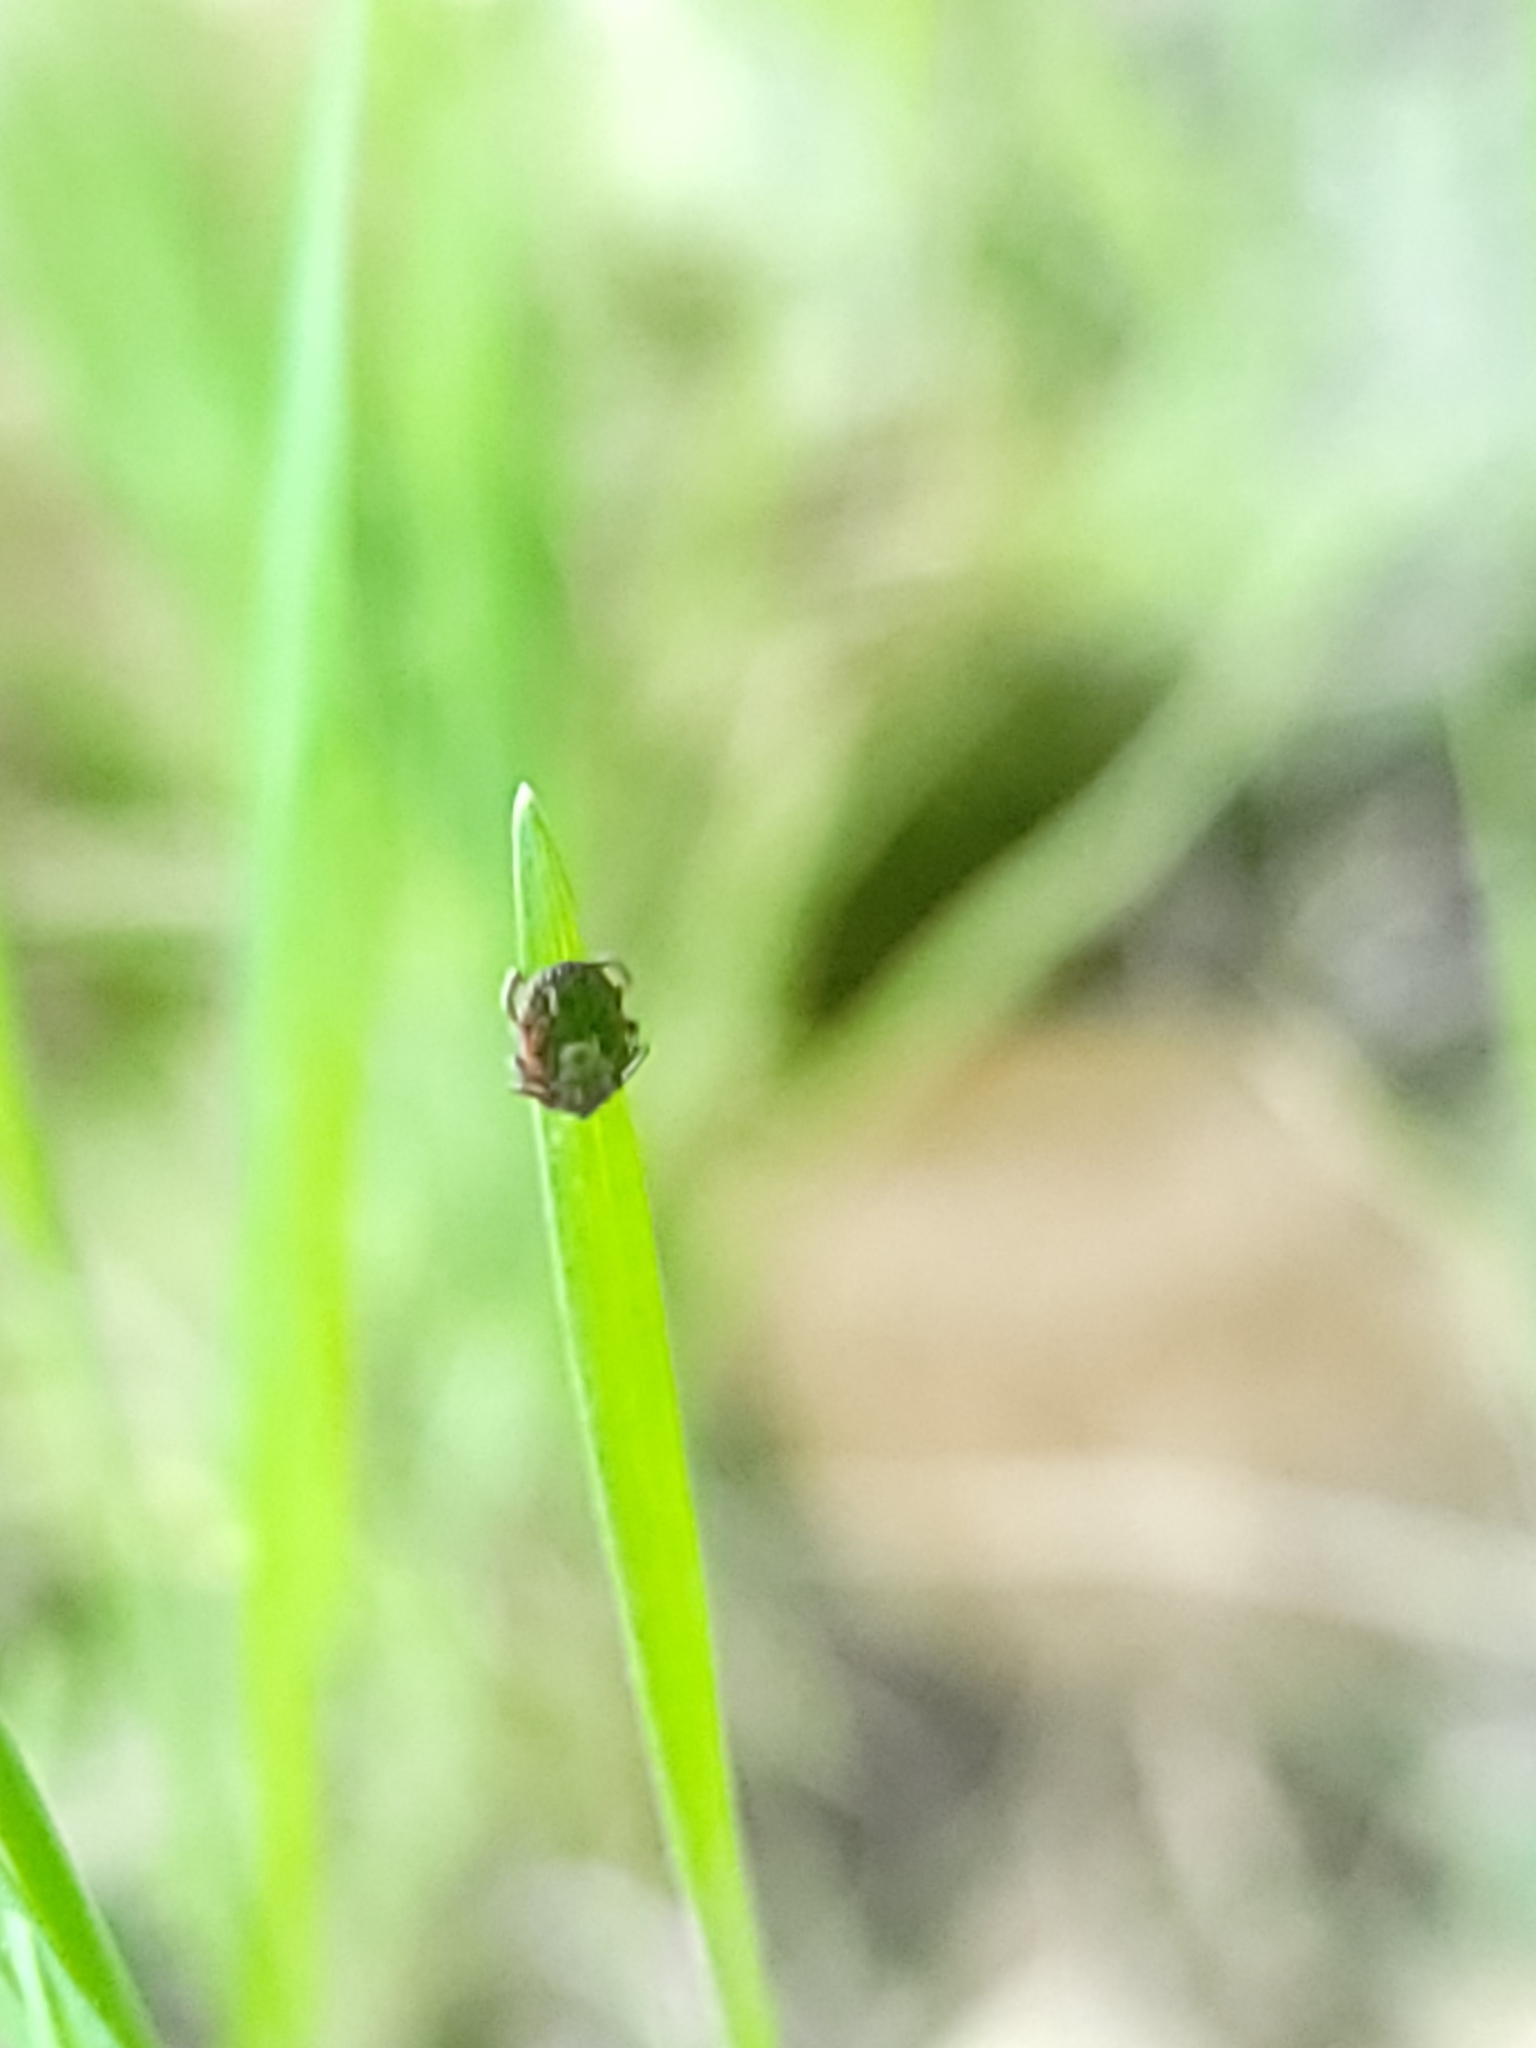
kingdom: Animalia
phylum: Arthropoda
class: Arachnida
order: Ixodida
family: Ixodidae
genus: Dermacentor
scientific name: Dermacentor occidentalis
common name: Net tick
